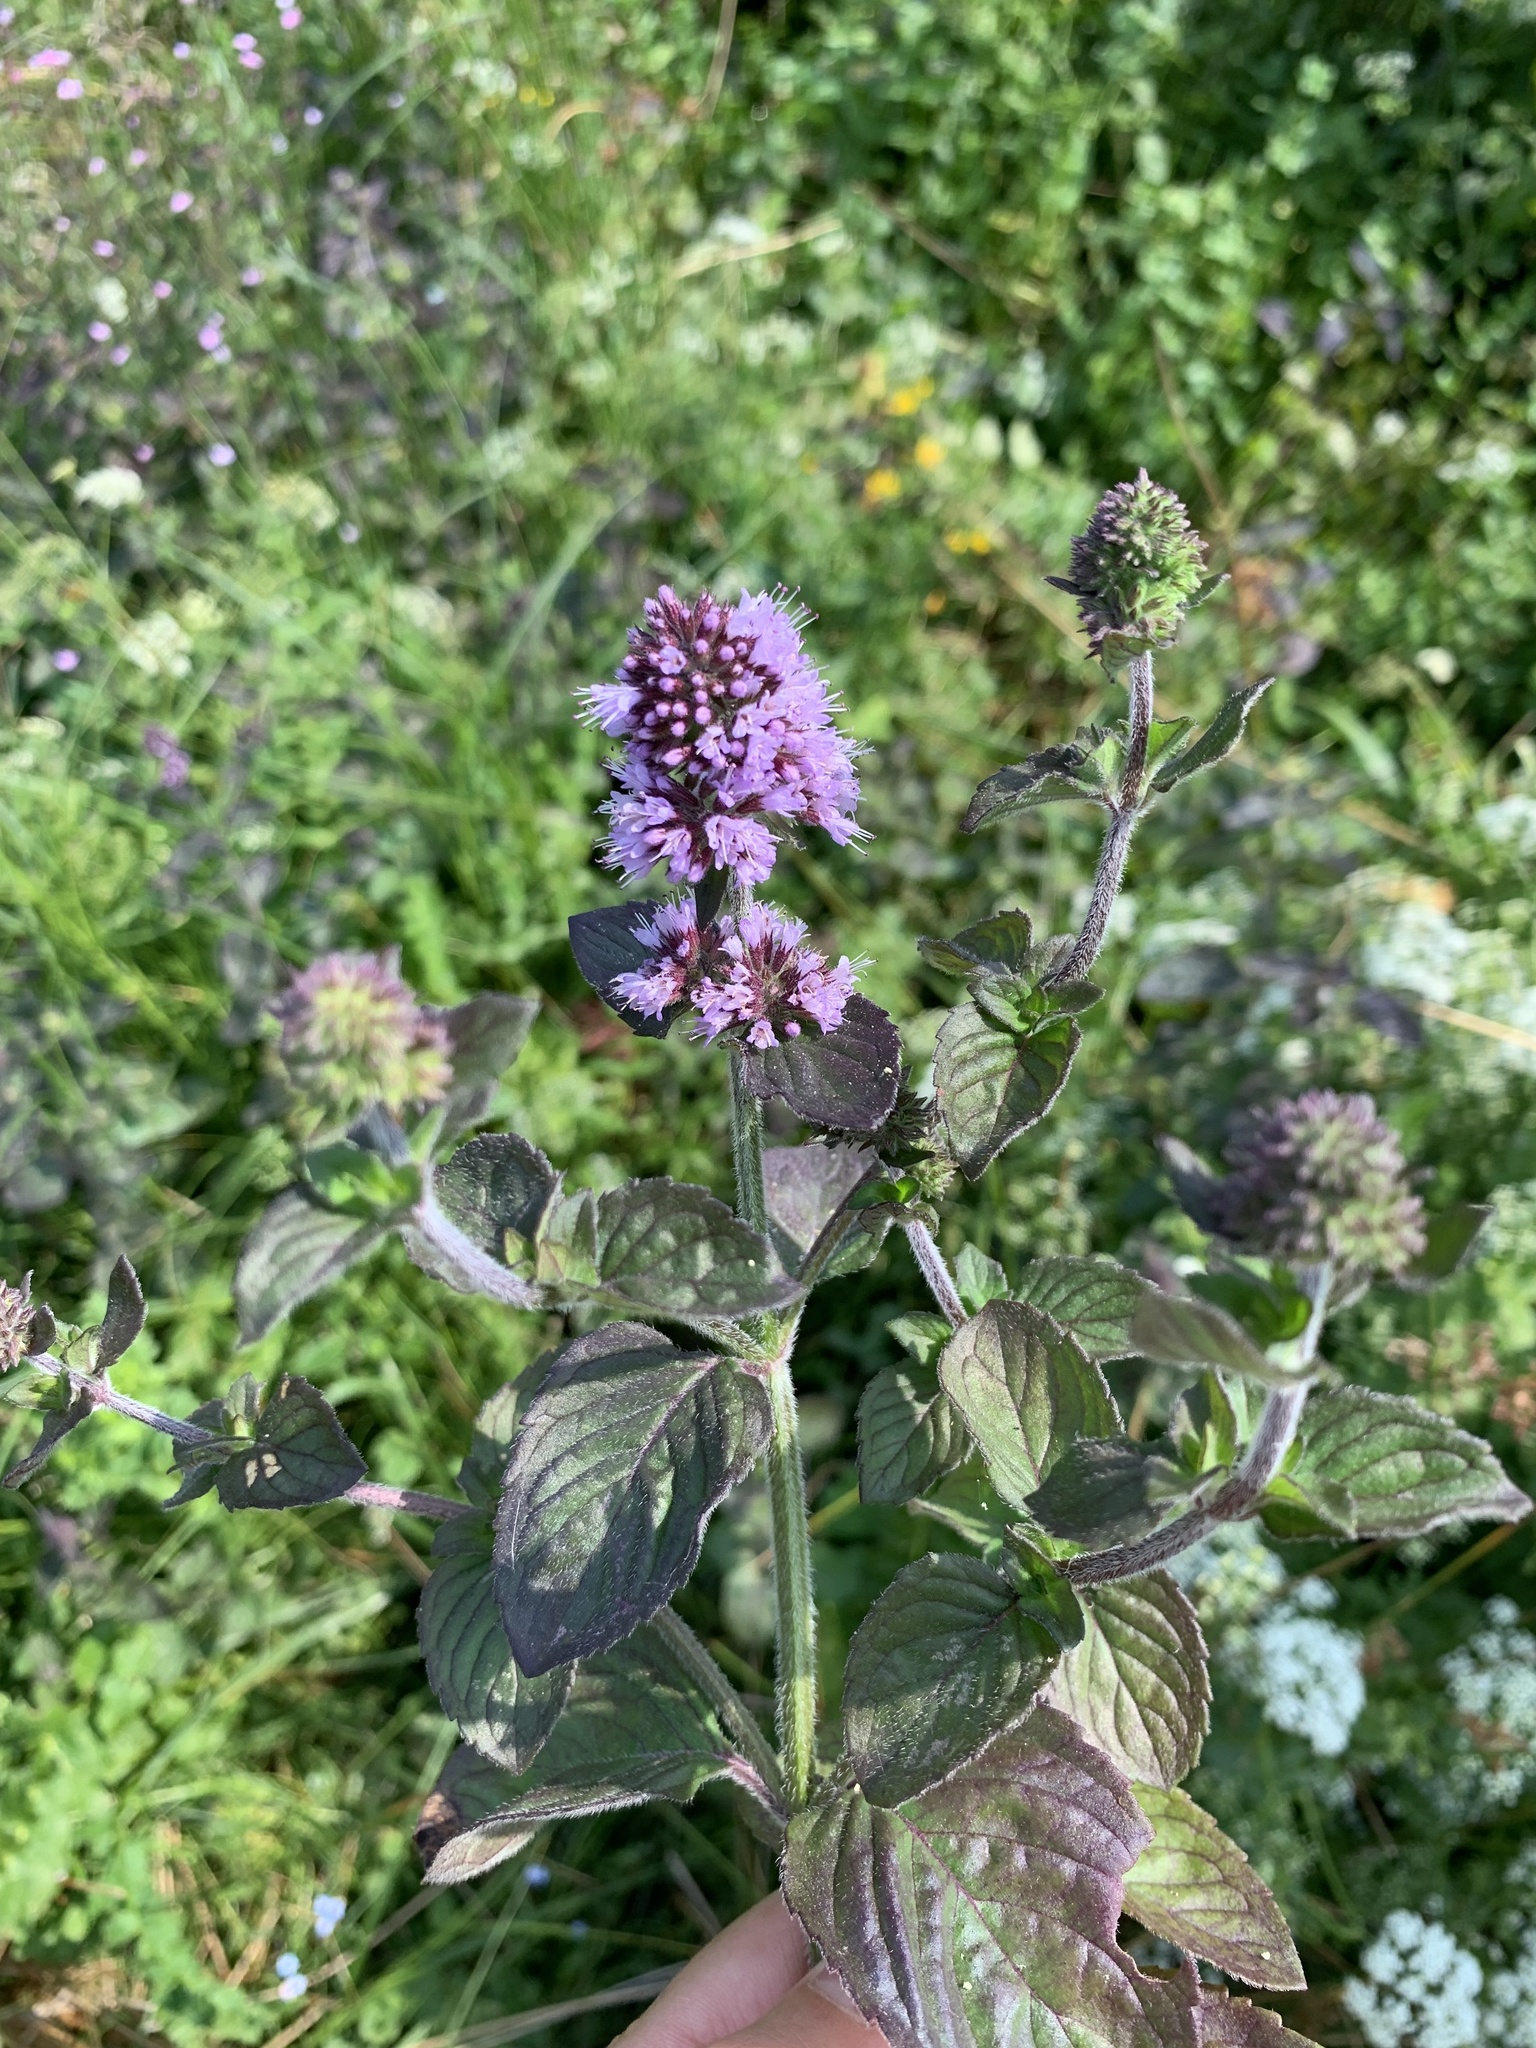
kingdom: Plantae
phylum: Tracheophyta
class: Magnoliopsida
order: Lamiales
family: Lamiaceae
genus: Mentha
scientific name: Mentha aquatica
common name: Water mint
